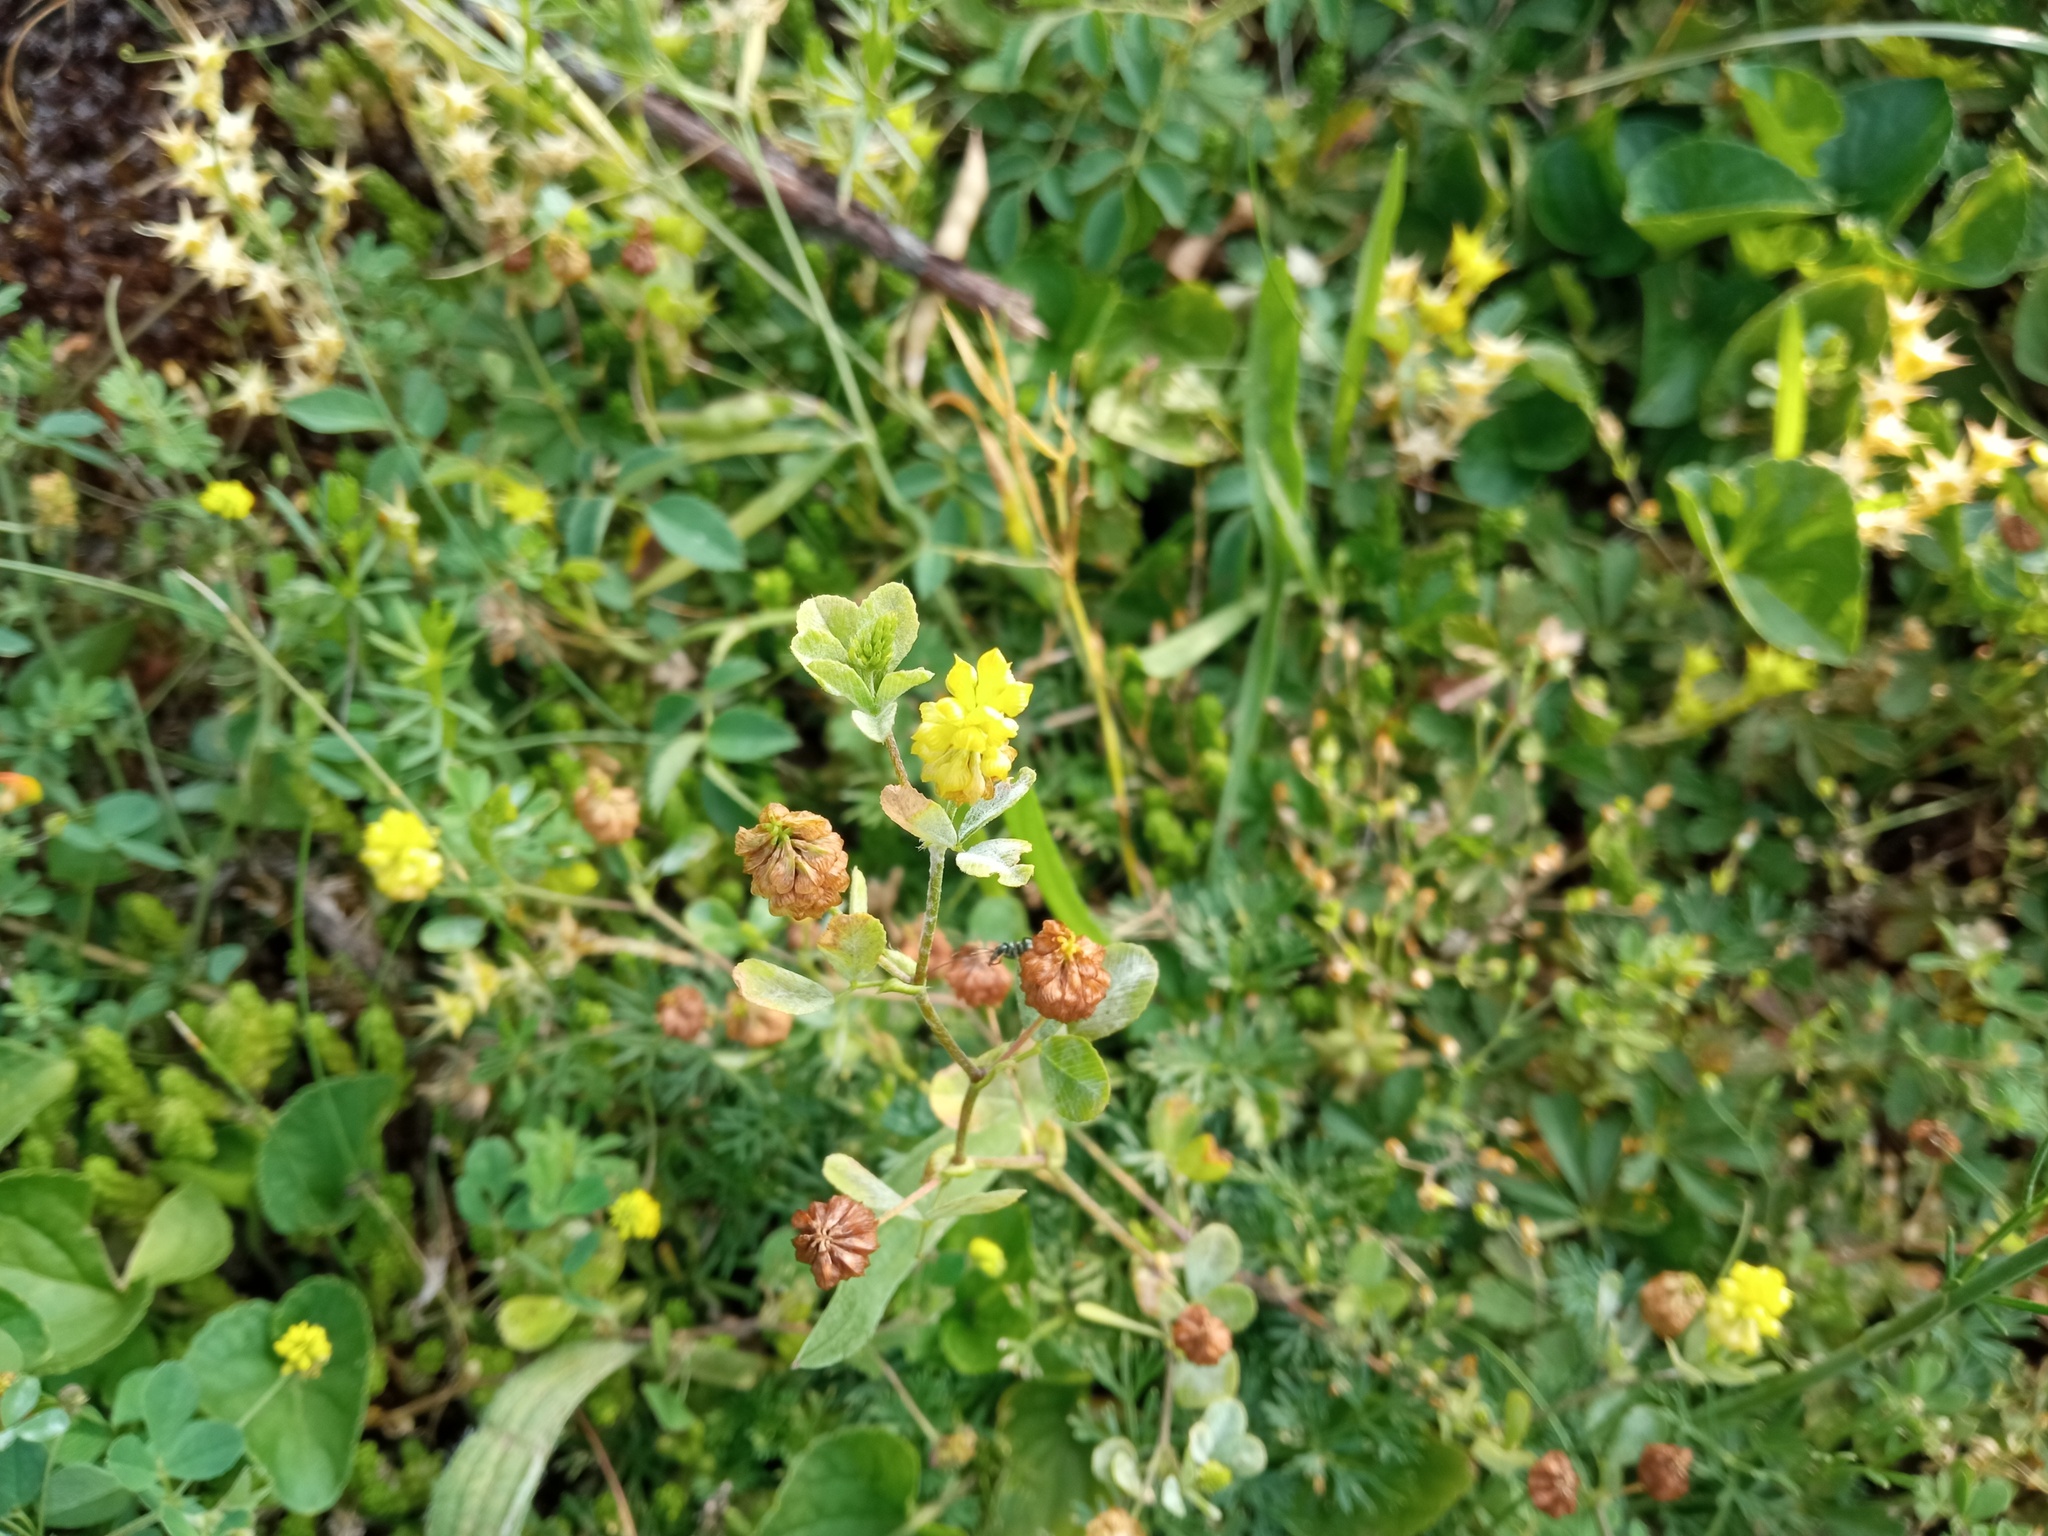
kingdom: Plantae
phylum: Tracheophyta
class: Magnoliopsida
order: Fabales
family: Fabaceae
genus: Trifolium
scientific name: Trifolium campestre
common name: Field clover
